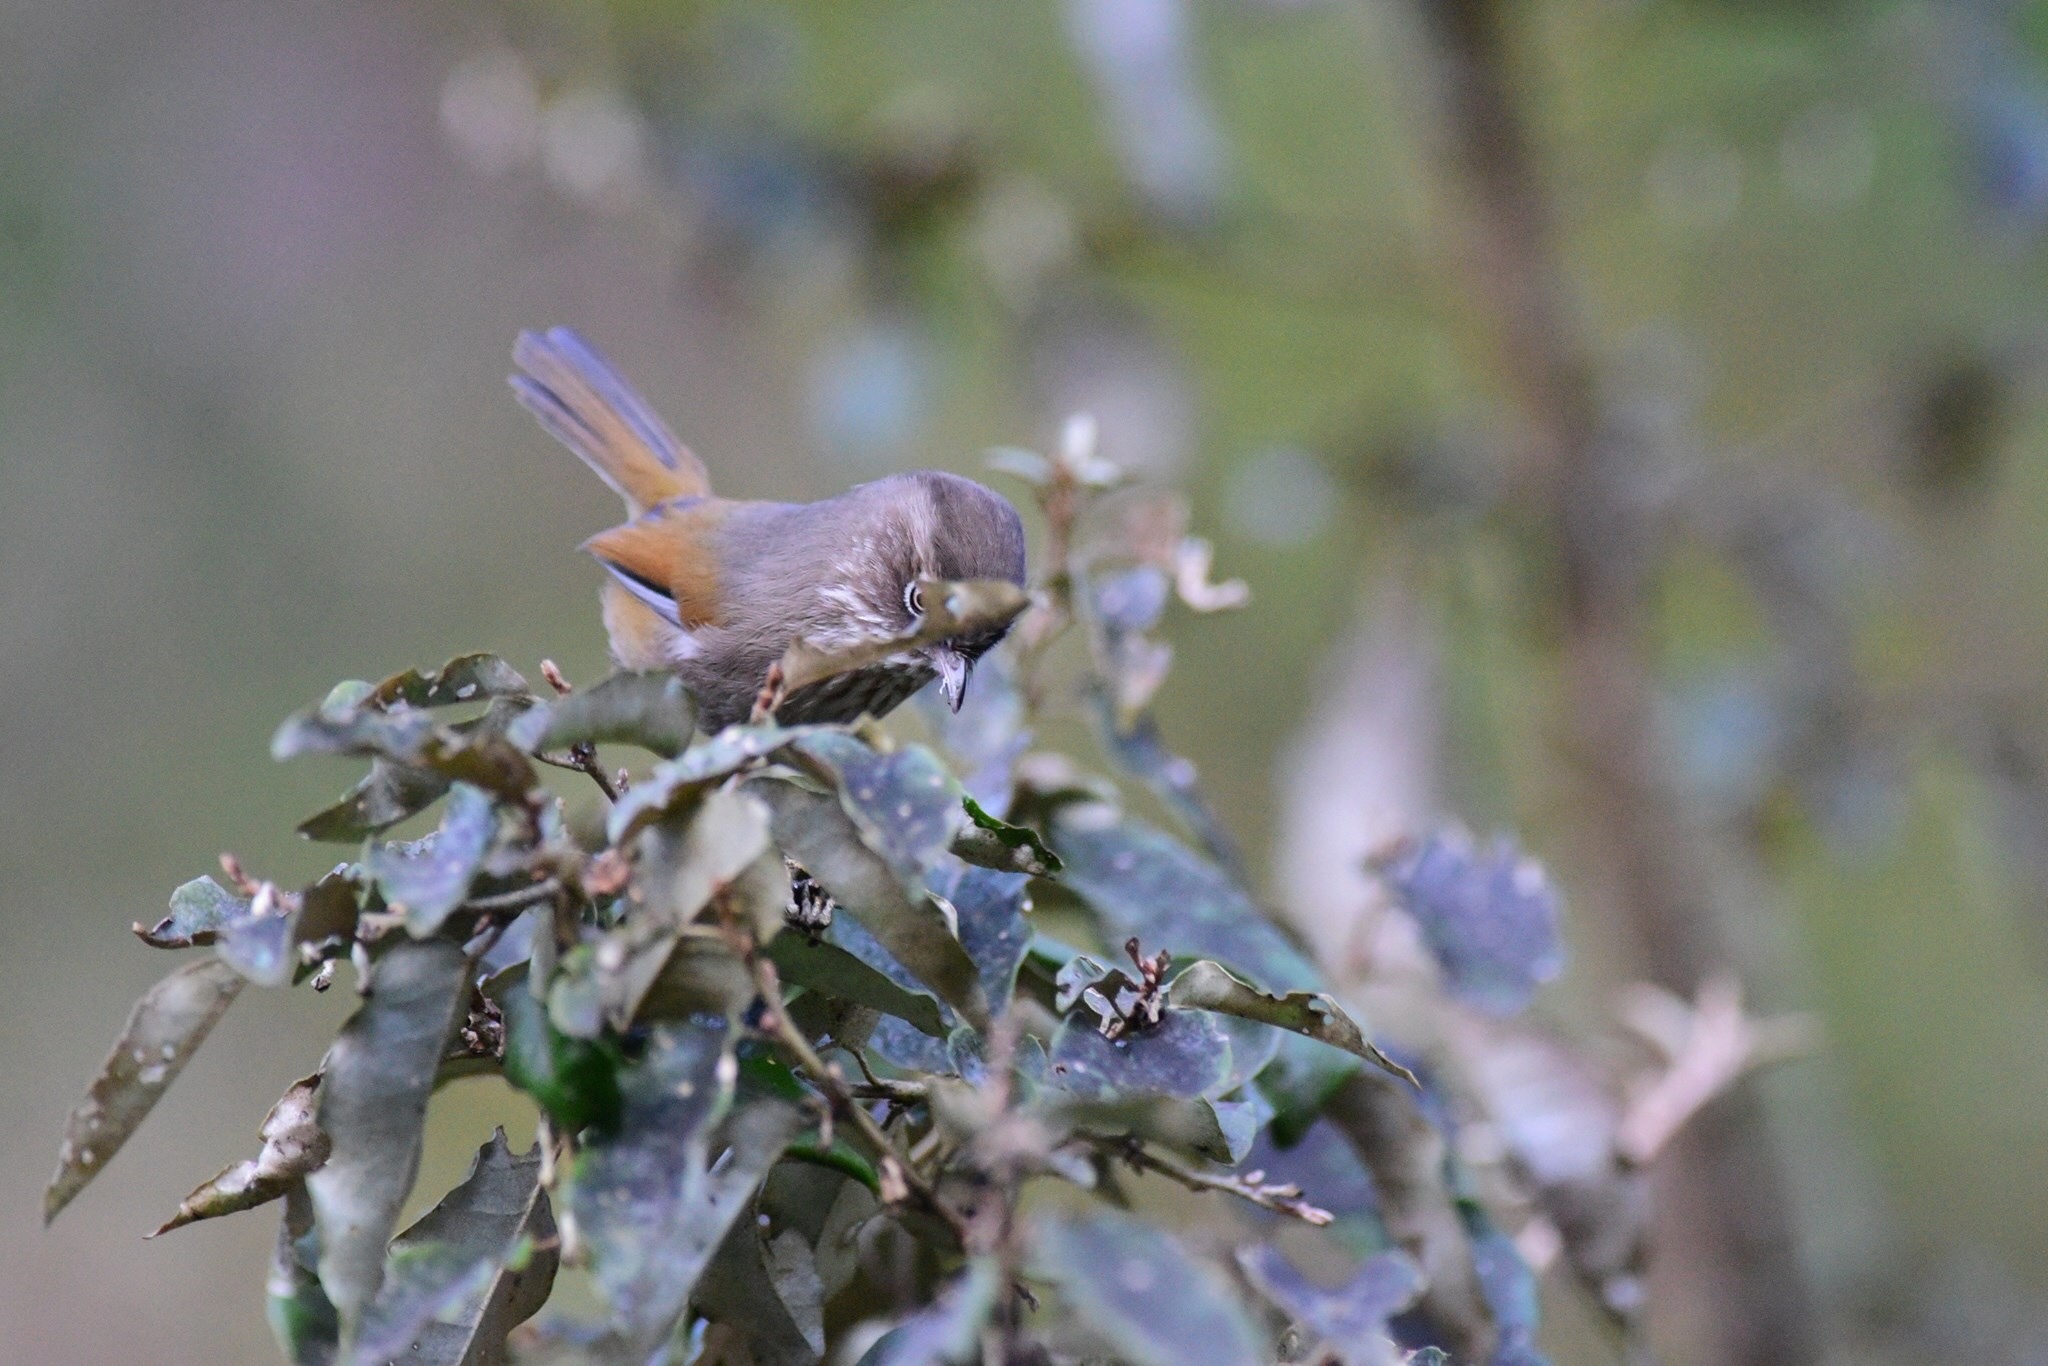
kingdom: Animalia
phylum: Chordata
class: Aves
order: Passeriformes
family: Sylviidae
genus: Fulvetta
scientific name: Fulvetta formosana
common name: Taiwan fulvetta
